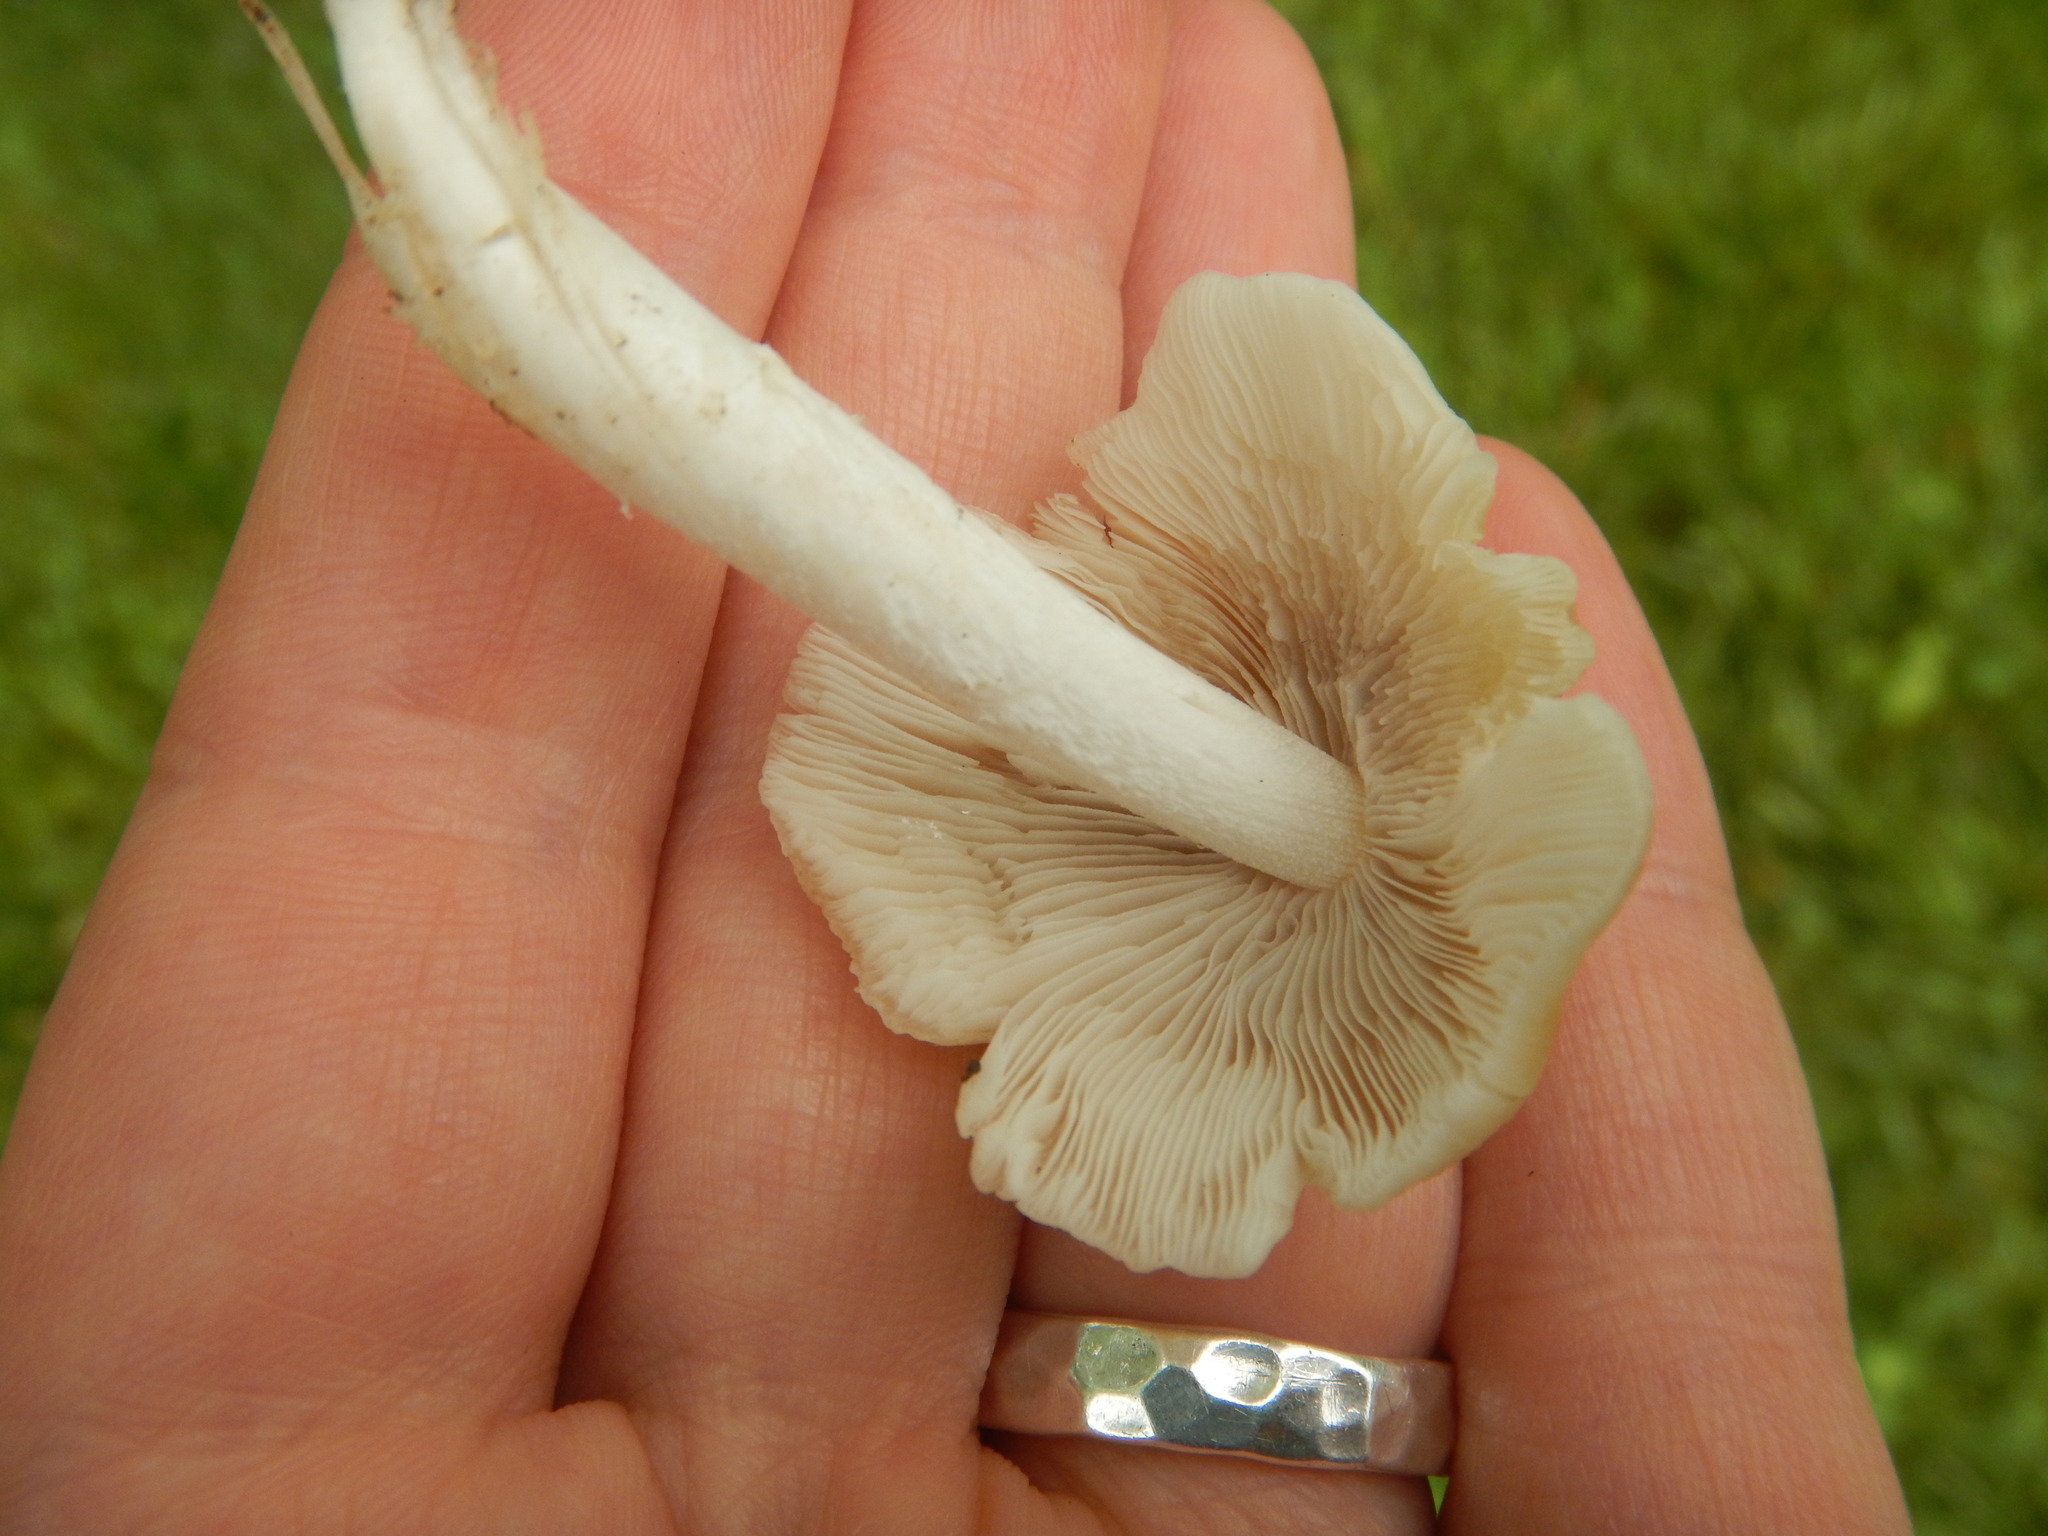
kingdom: Fungi
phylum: Basidiomycota
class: Agaricomycetes
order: Agaricales
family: Psathyrellaceae
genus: Candolleomyces
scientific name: Candolleomyces candolleanus
